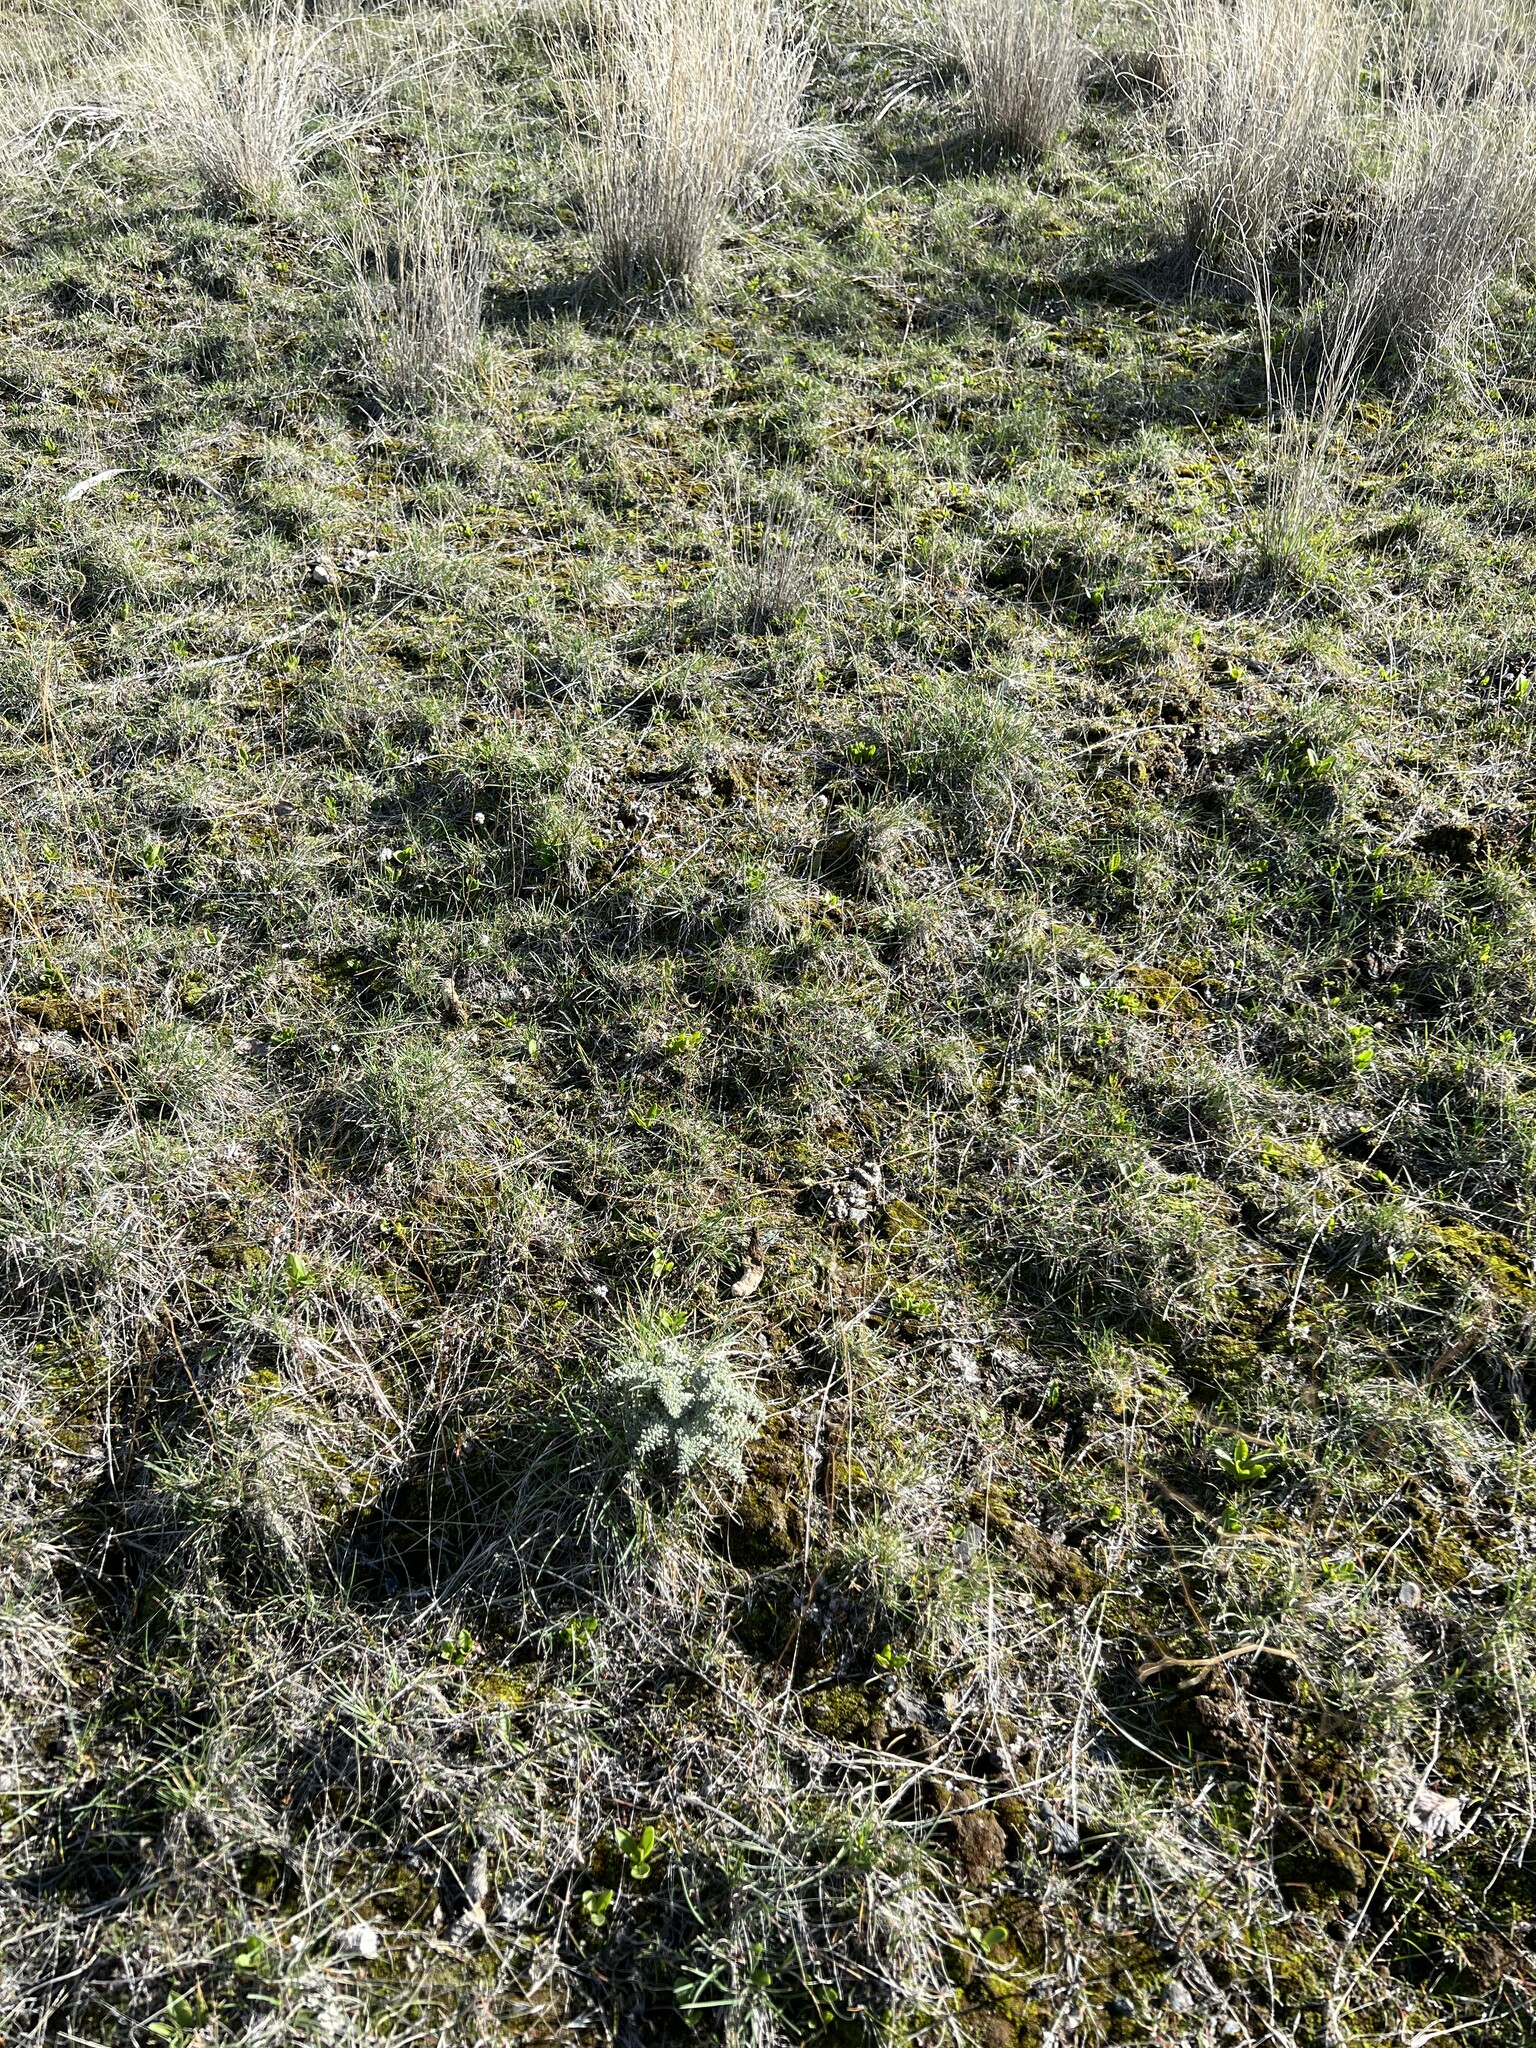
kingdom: Plantae
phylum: Tracheophyta
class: Magnoliopsida
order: Asterales
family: Asteraceae
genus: Chaenactis
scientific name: Chaenactis douglasii
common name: Hoary pincushion
